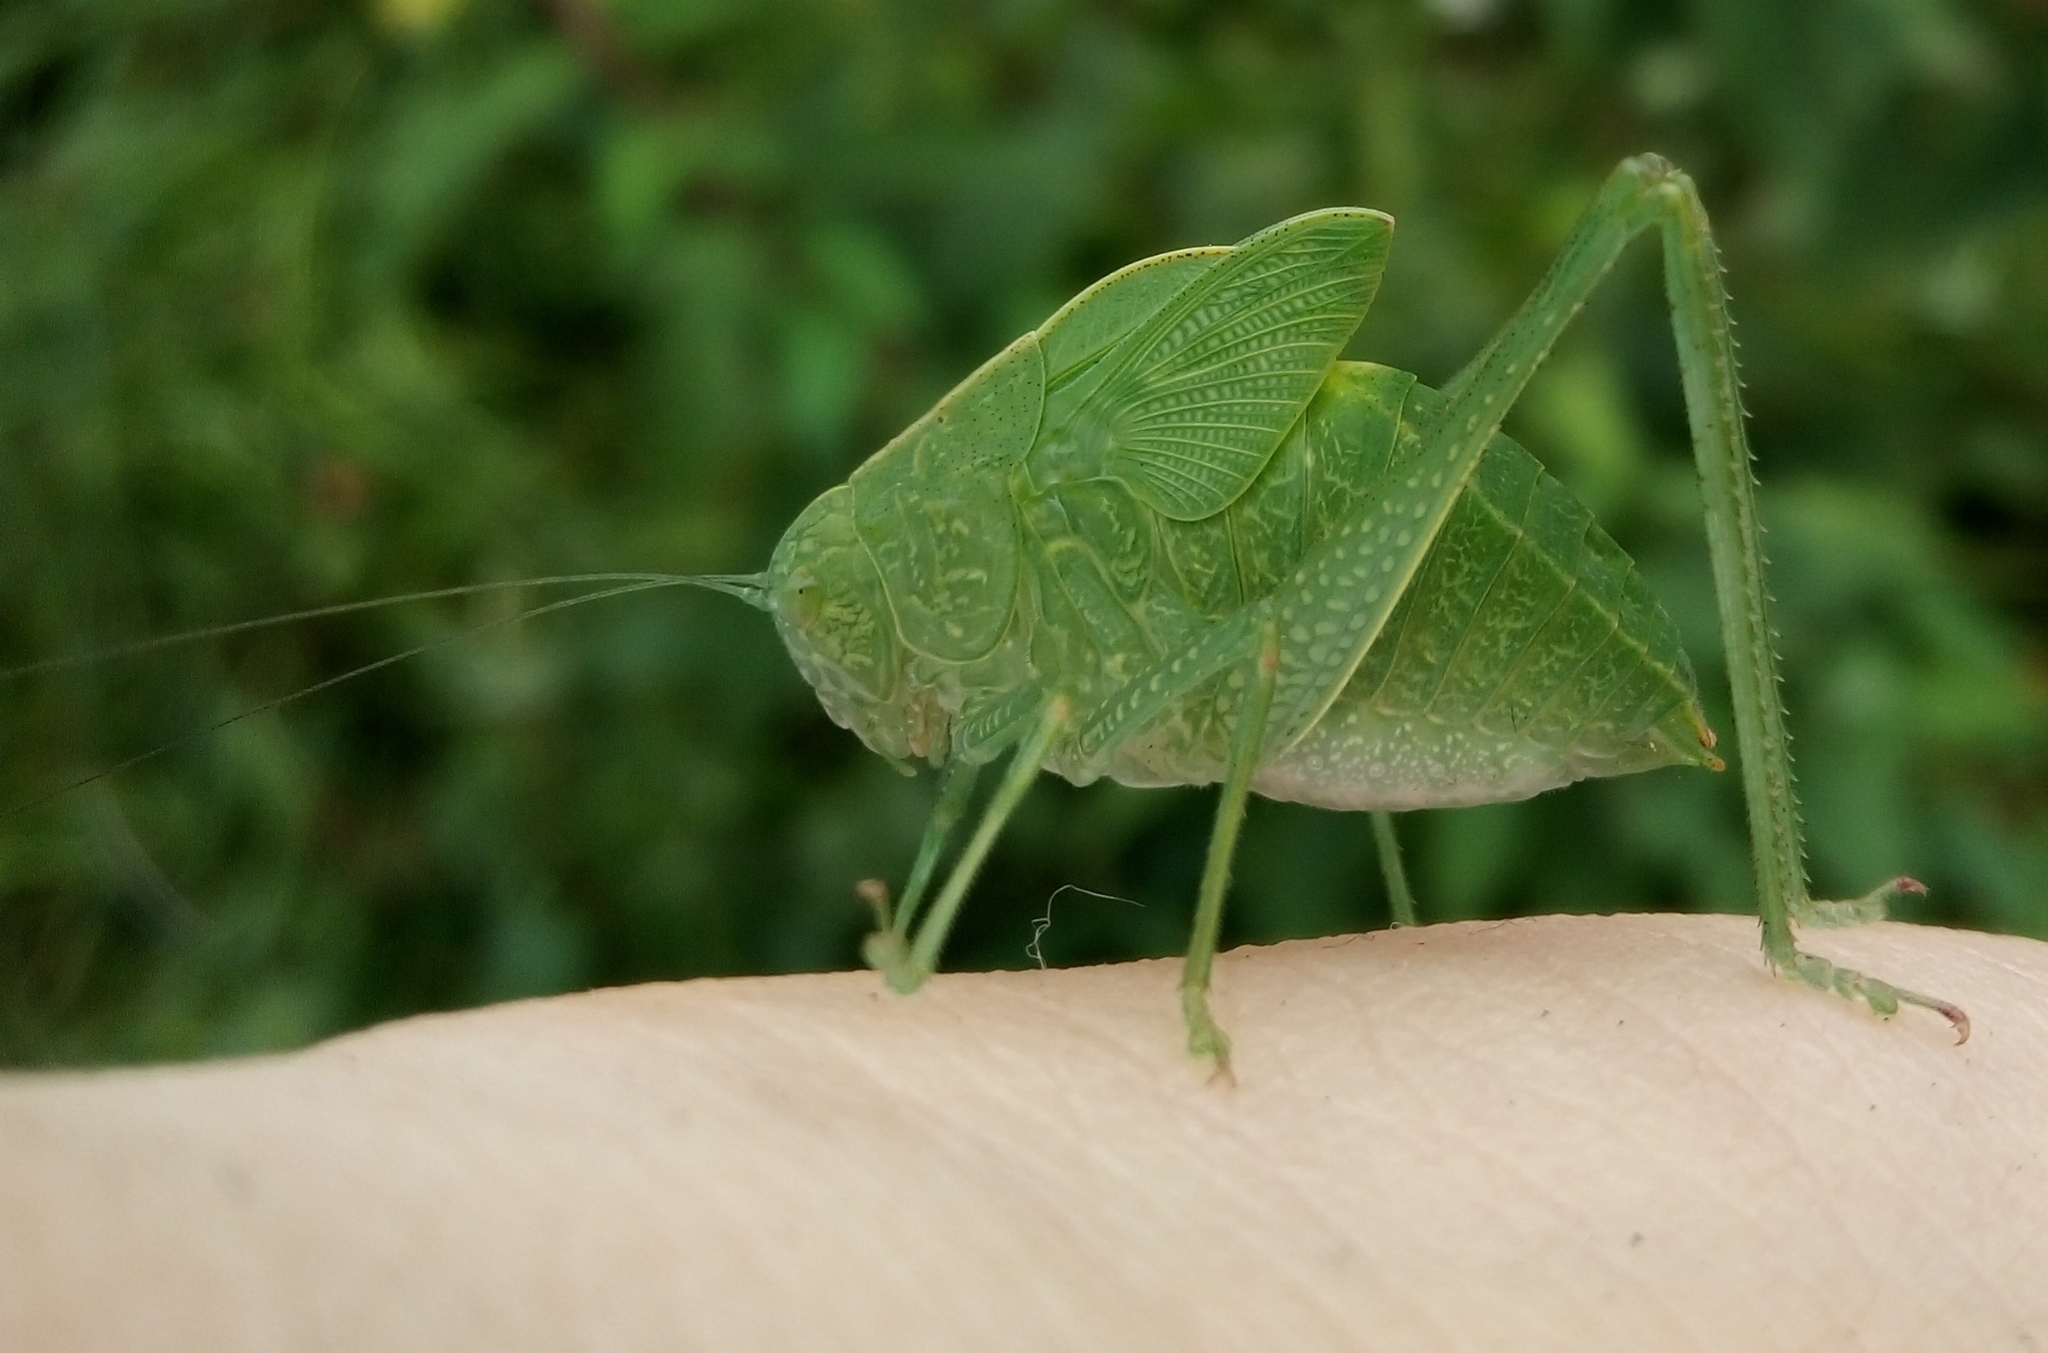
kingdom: Animalia
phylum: Arthropoda
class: Insecta
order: Orthoptera
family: Tettigoniidae
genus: Microcentrum
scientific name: Microcentrum rhombifolium
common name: Broad-winged katydid
